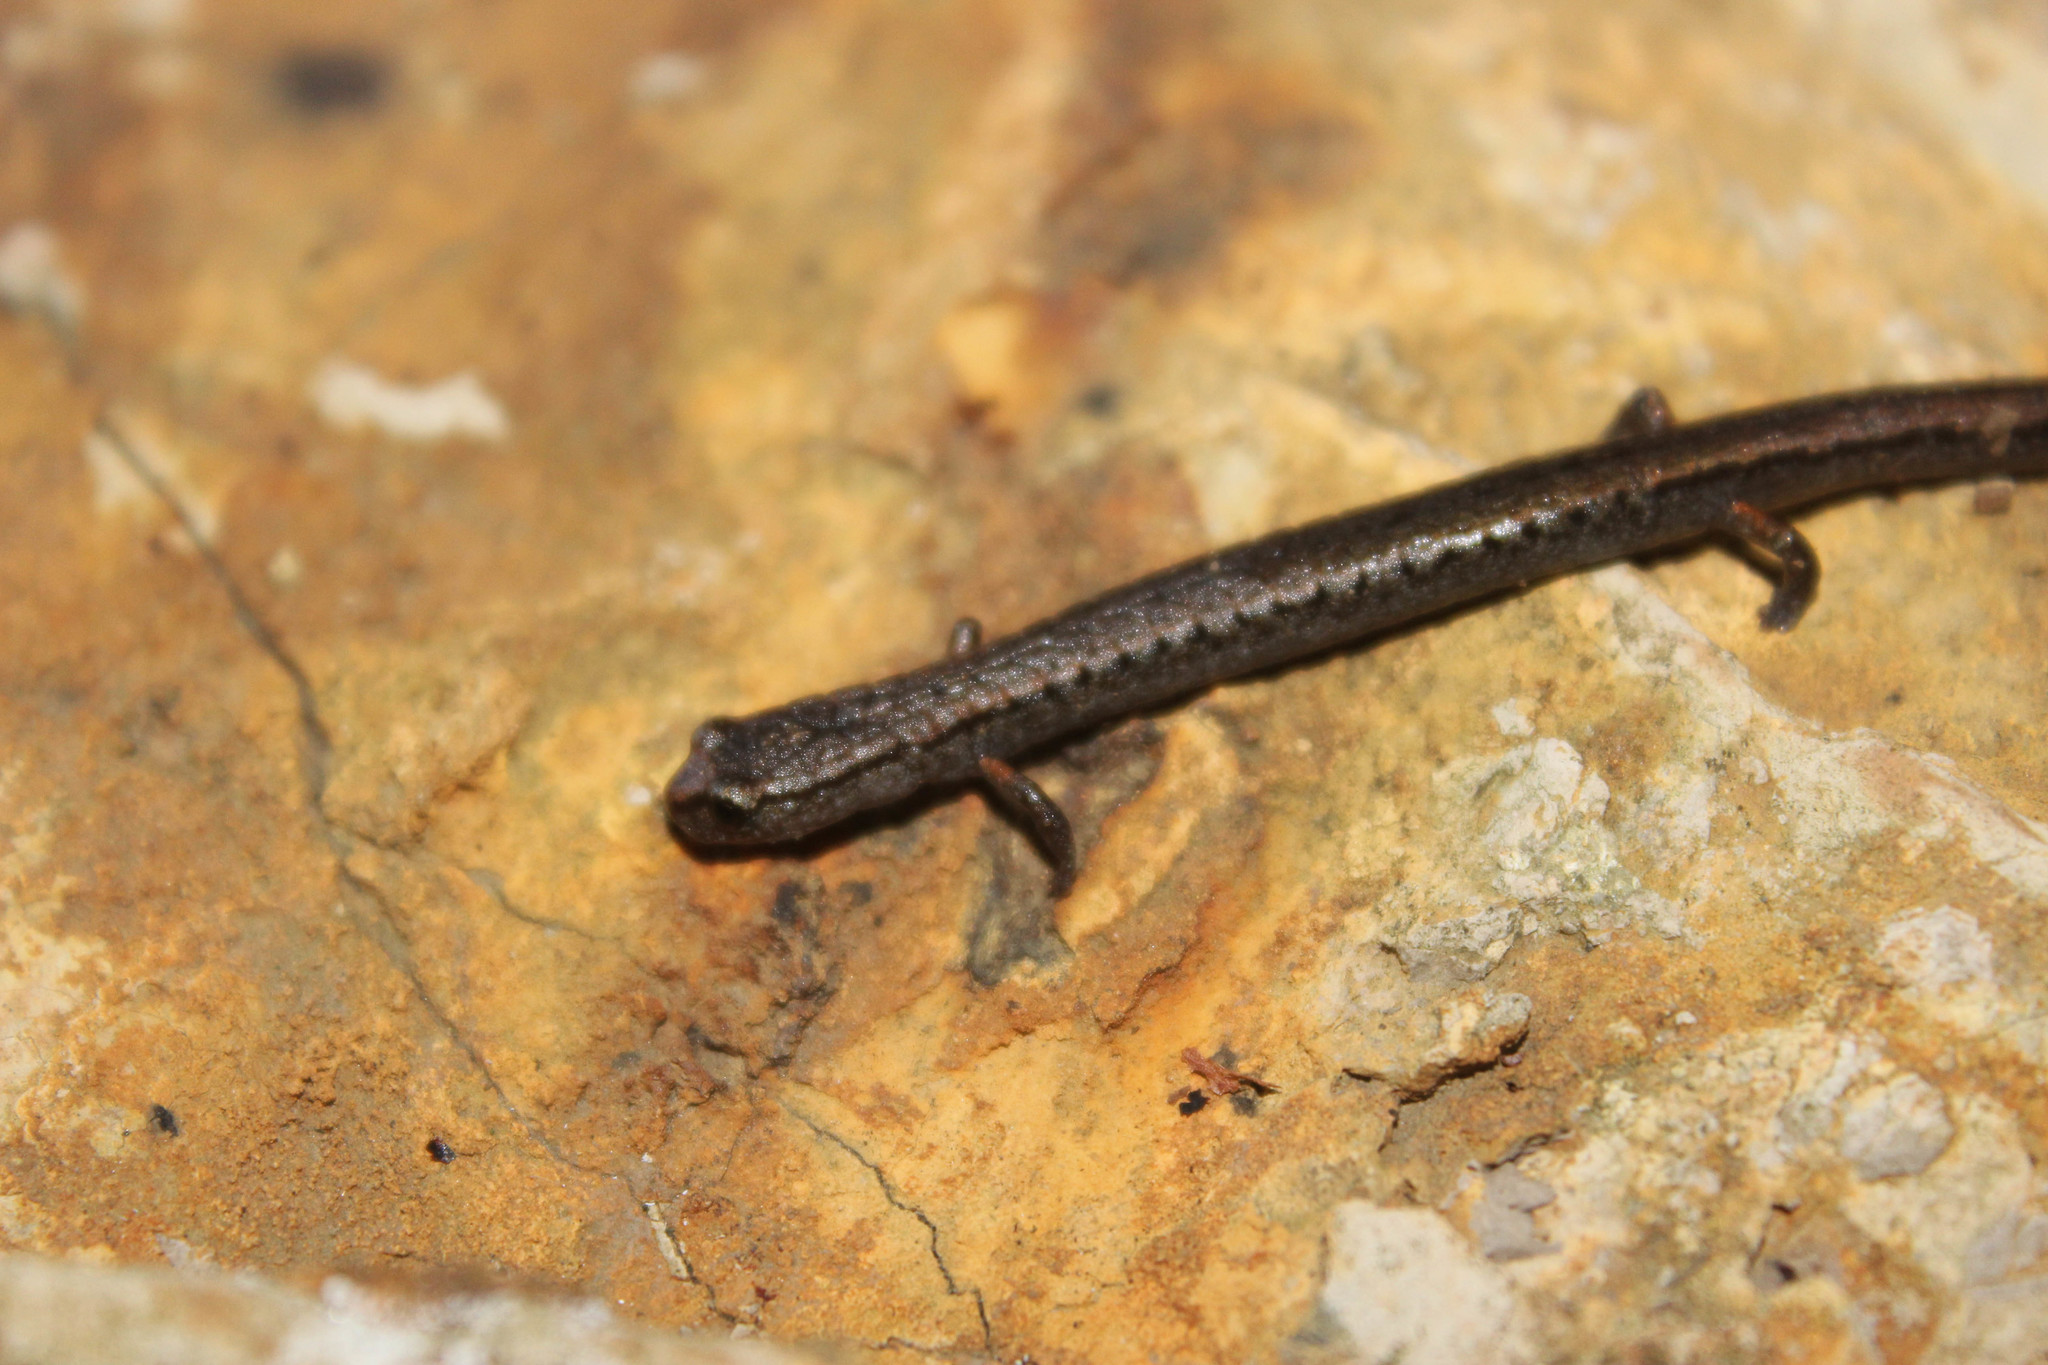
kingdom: Animalia
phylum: Chordata
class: Amphibia
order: Caudata
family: Plethodontidae
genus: Batrachoseps
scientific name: Batrachoseps attenuatus
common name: California slender salamander
